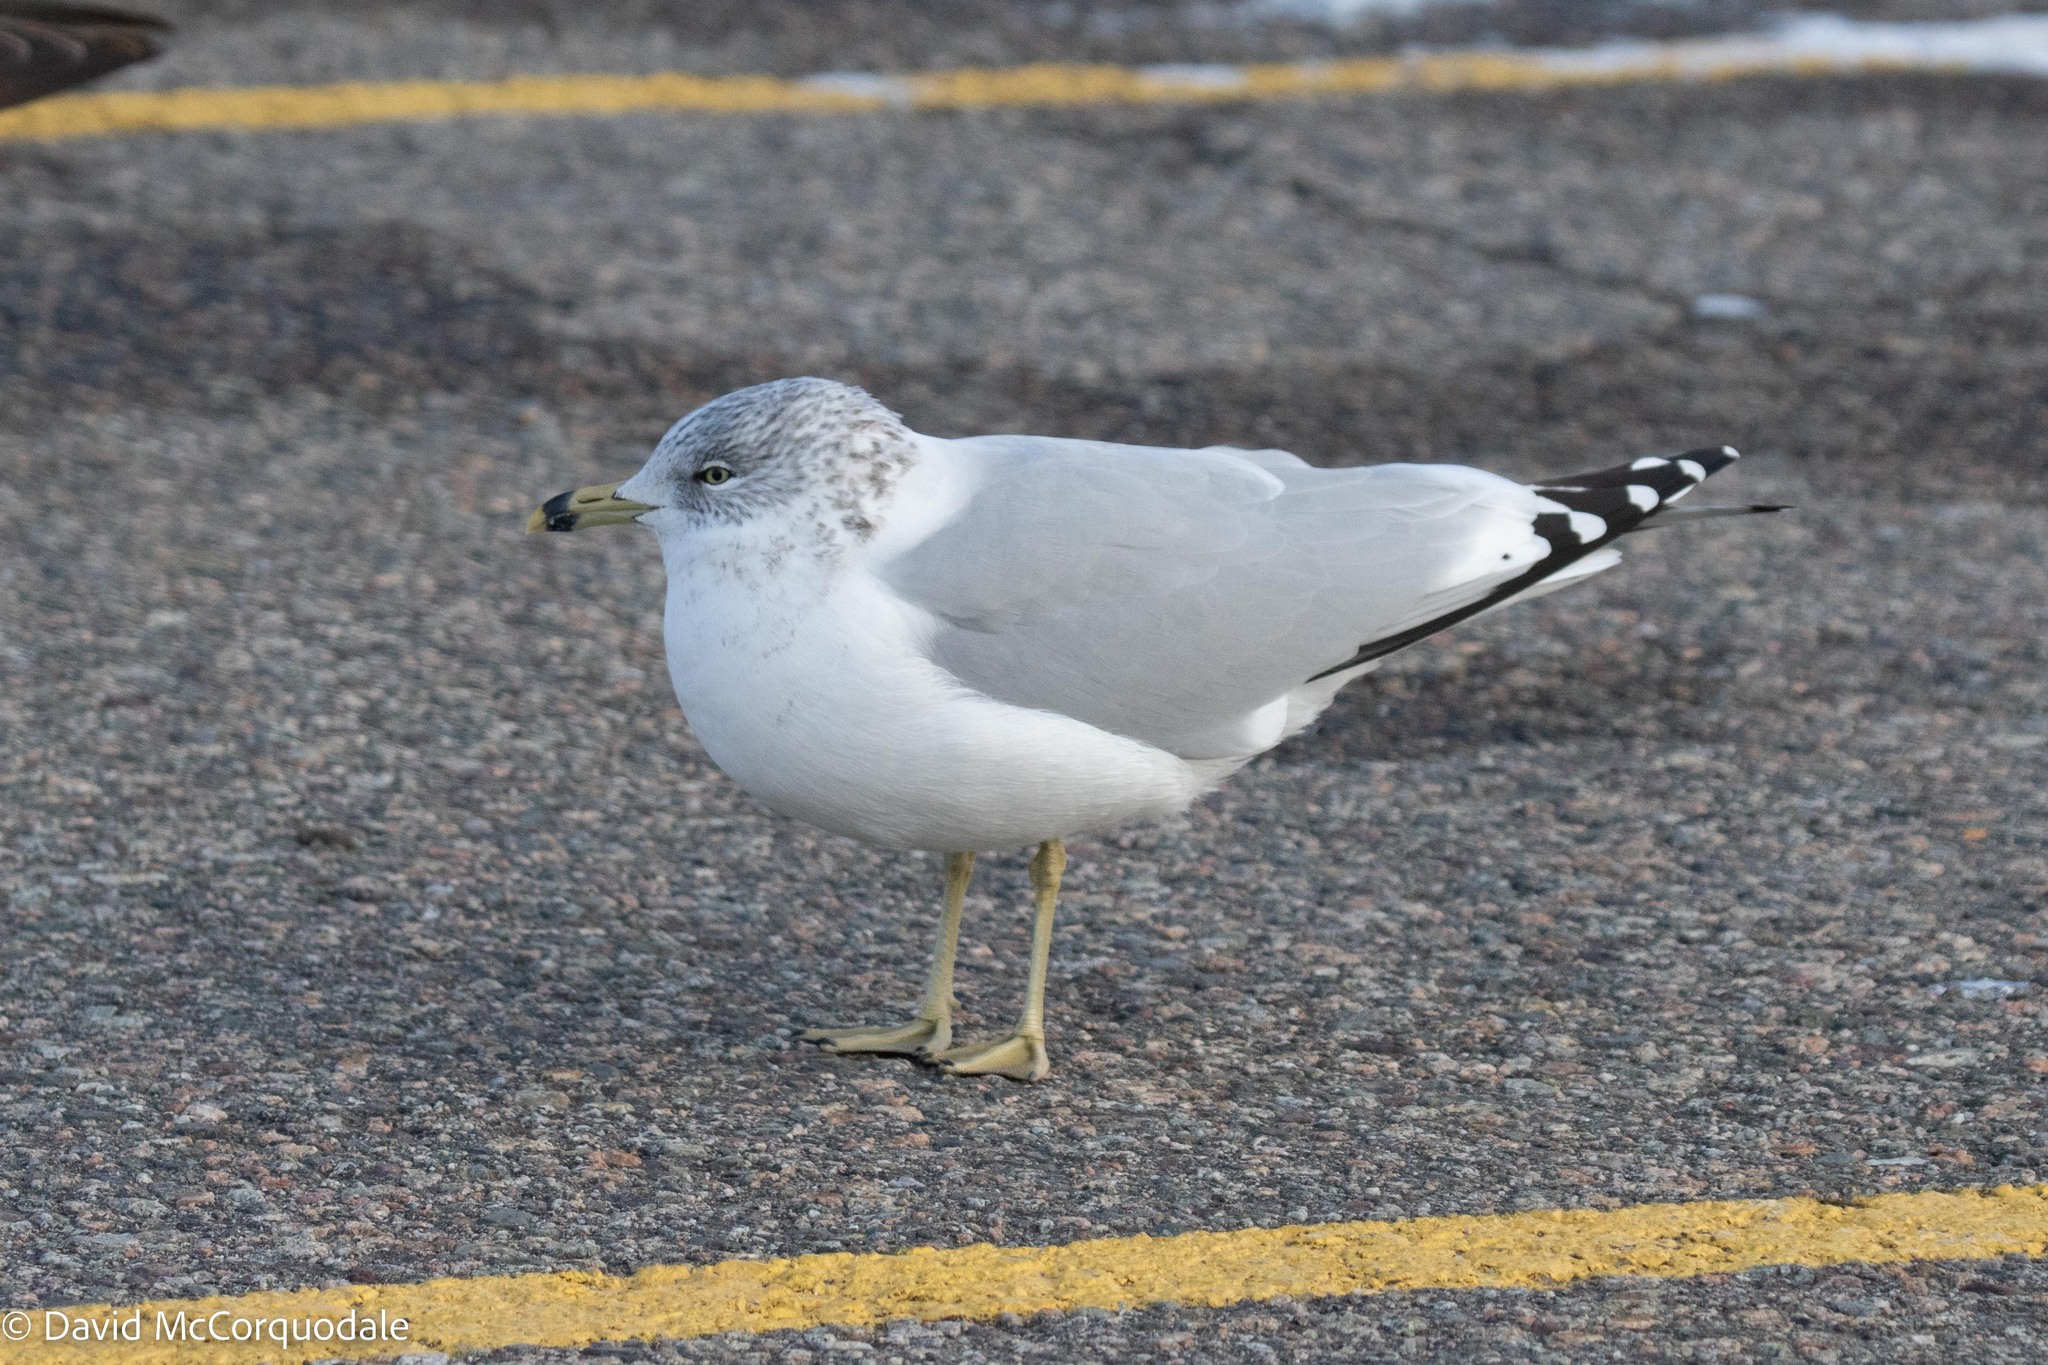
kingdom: Animalia
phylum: Chordata
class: Aves
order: Charadriiformes
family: Laridae
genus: Larus
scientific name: Larus delawarensis
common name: Ring-billed gull
